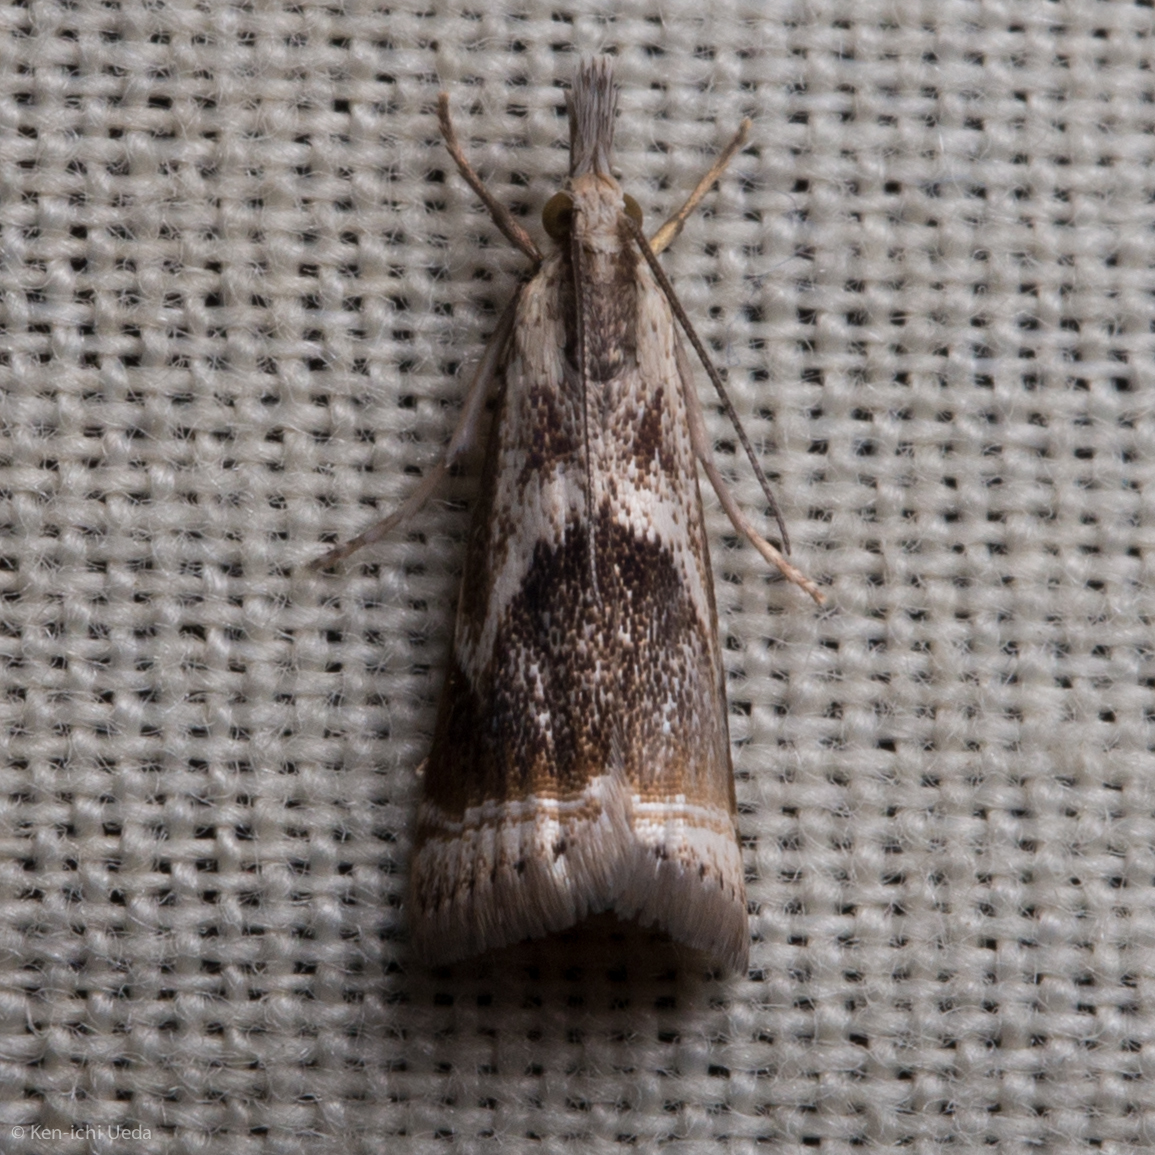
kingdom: Animalia
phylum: Arthropoda
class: Insecta
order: Lepidoptera
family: Crambidae
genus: Microcrambus
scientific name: Microcrambus elegans
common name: Elegant grass-veneer
